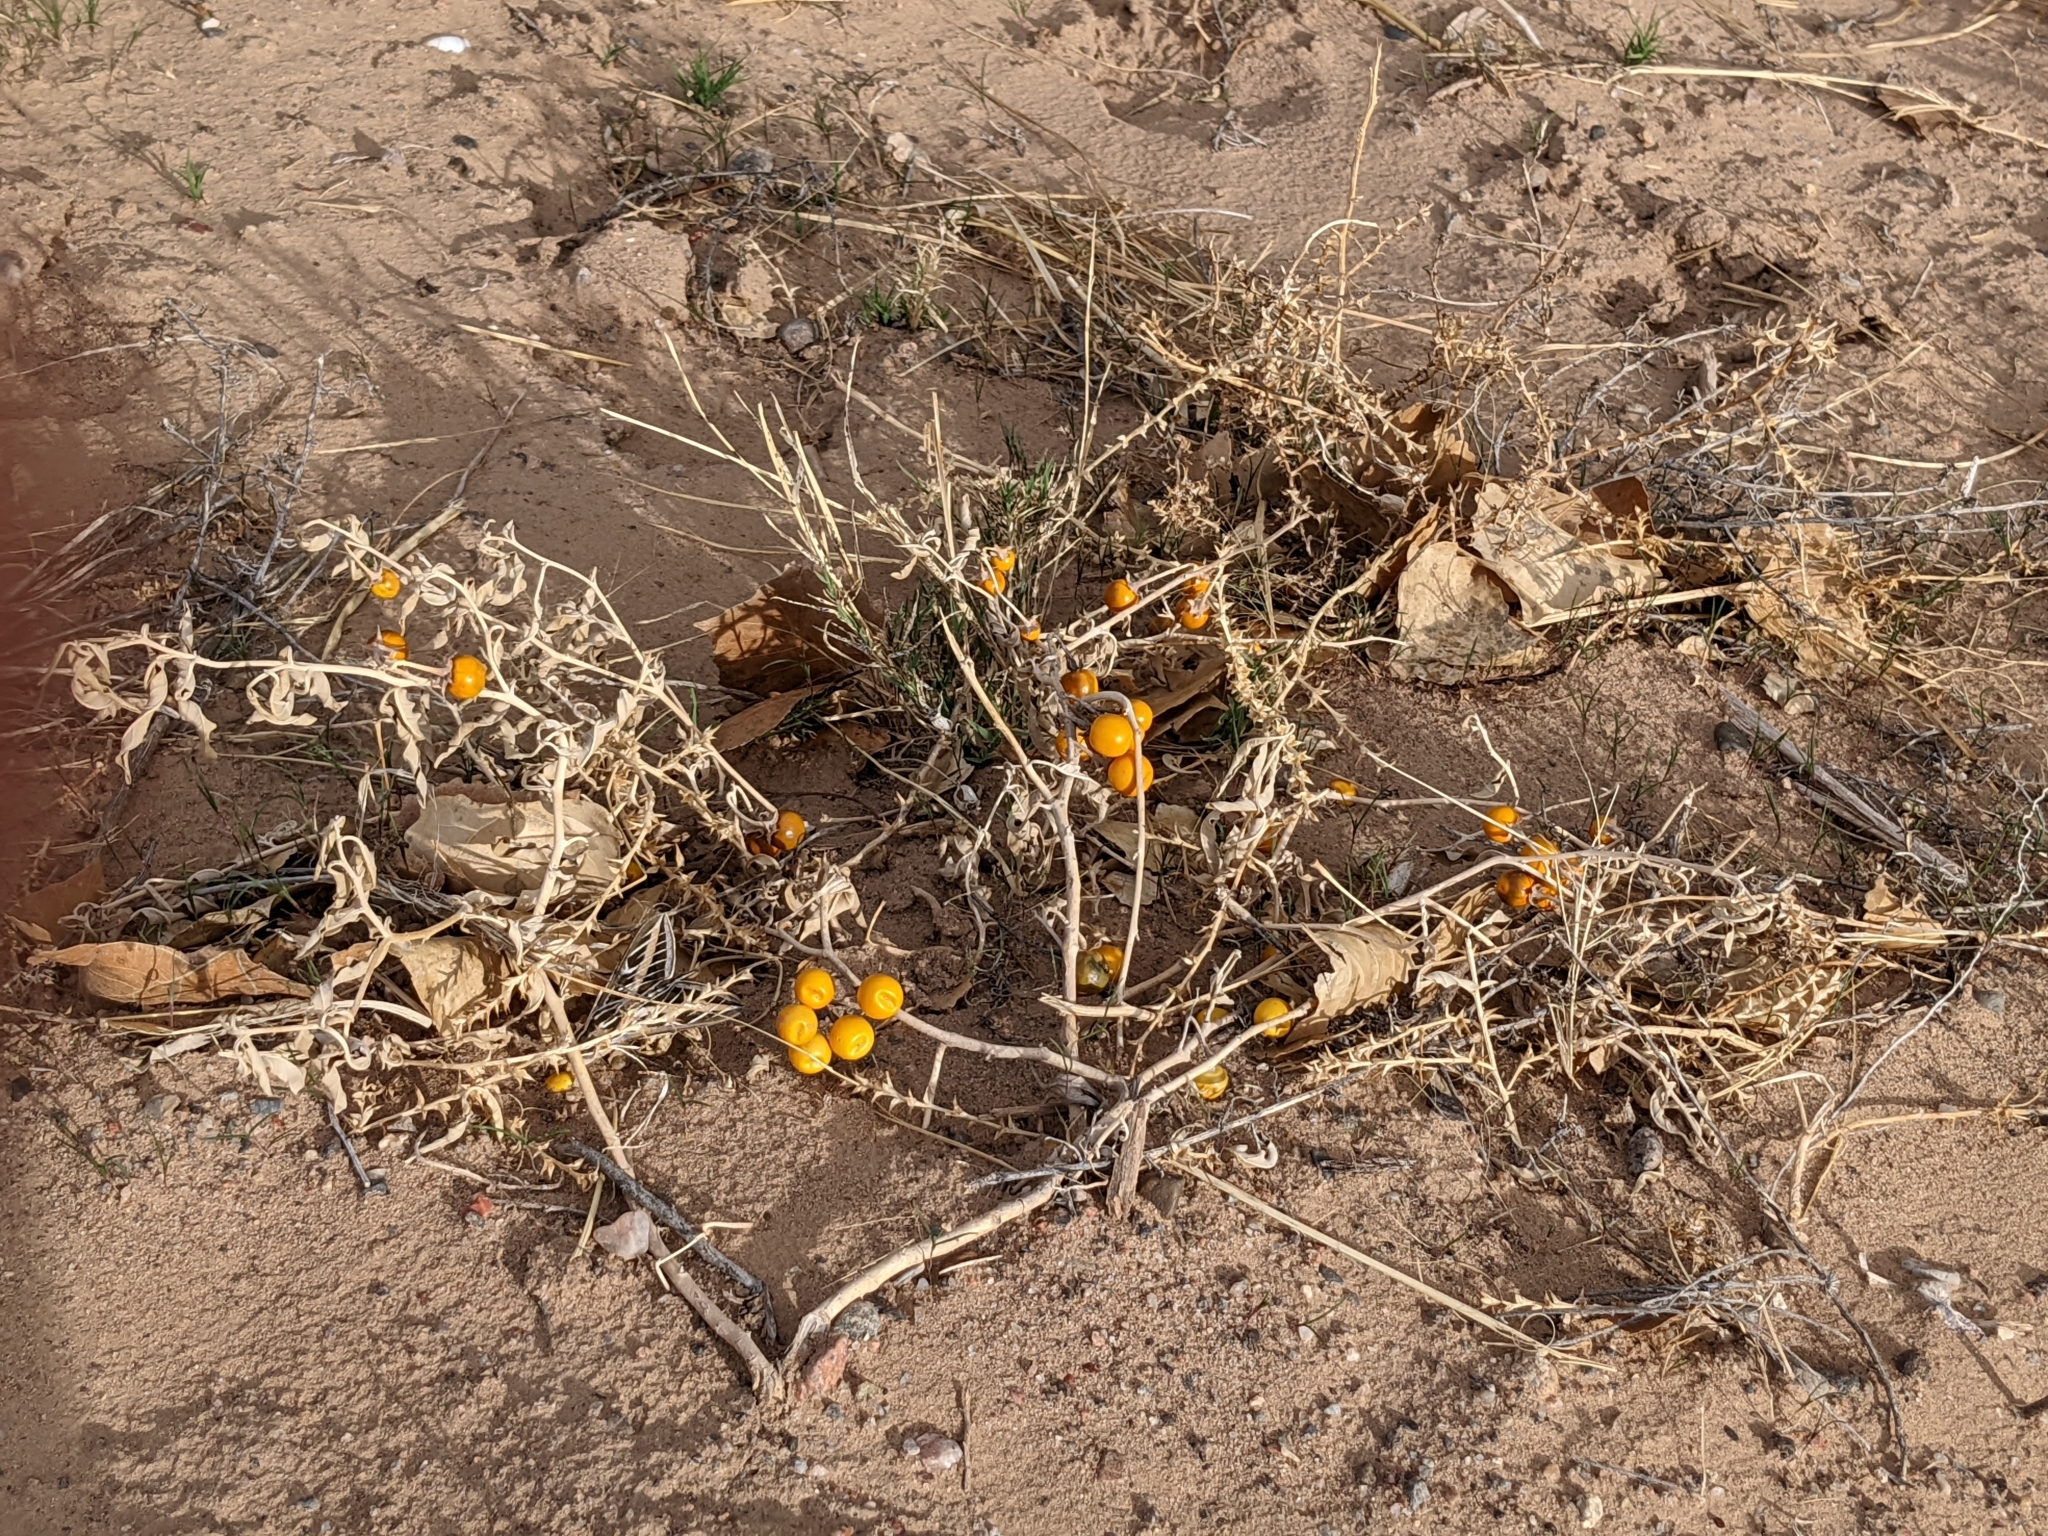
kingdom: Plantae
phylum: Tracheophyta
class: Magnoliopsida
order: Solanales
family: Solanaceae
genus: Solanum
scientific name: Solanum elaeagnifolium
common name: Silverleaf nightshade
